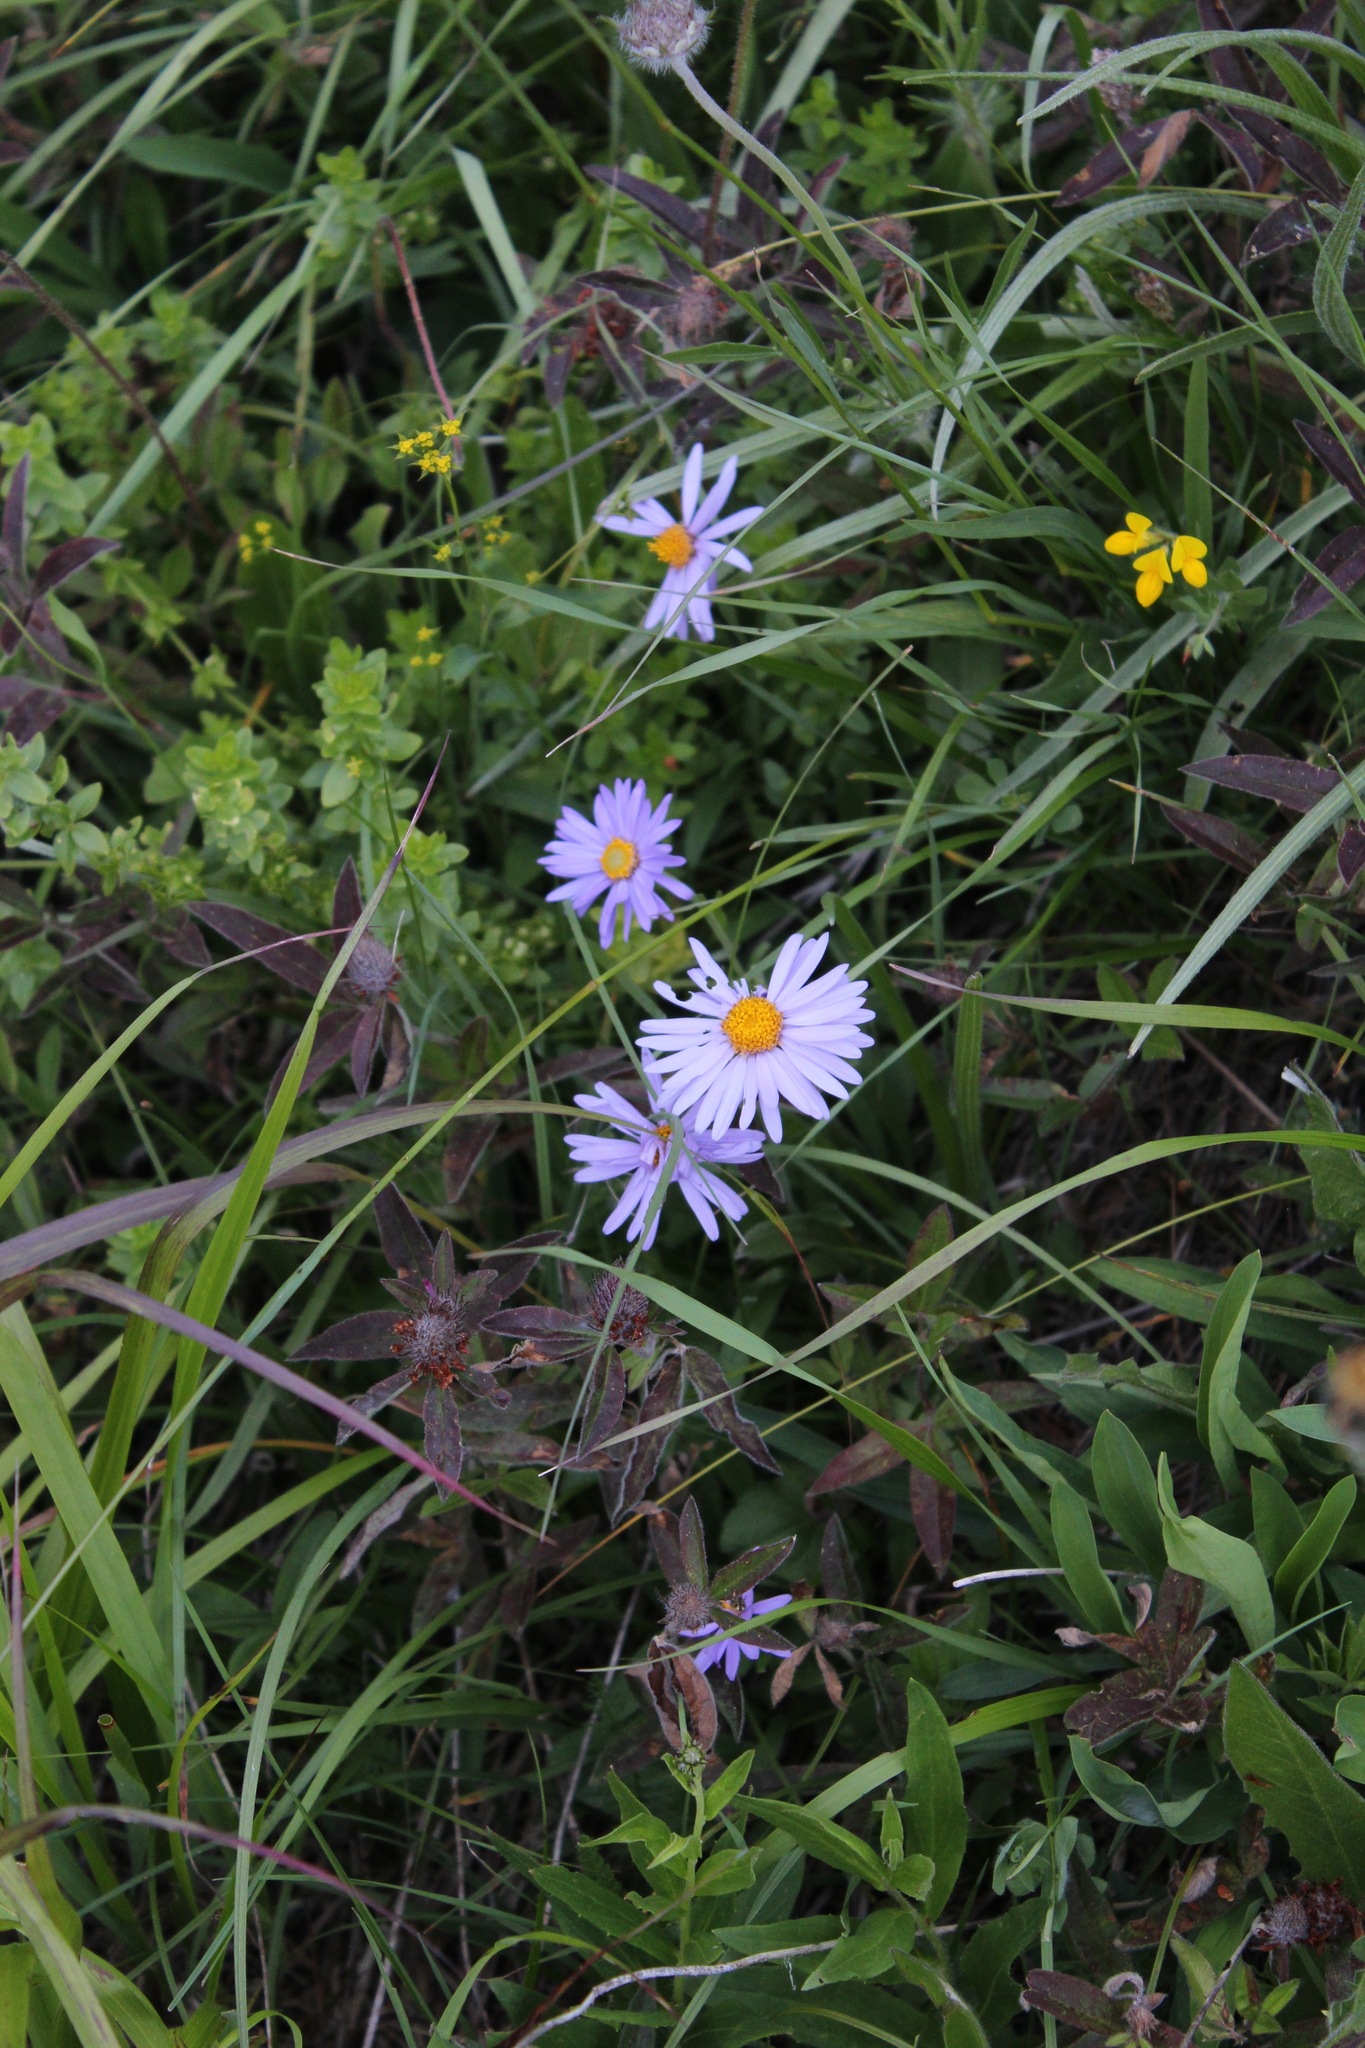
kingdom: Plantae
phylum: Tracheophyta
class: Magnoliopsida
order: Asterales
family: Asteraceae
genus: Aster
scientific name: Aster alpinus
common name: Alpine aster
